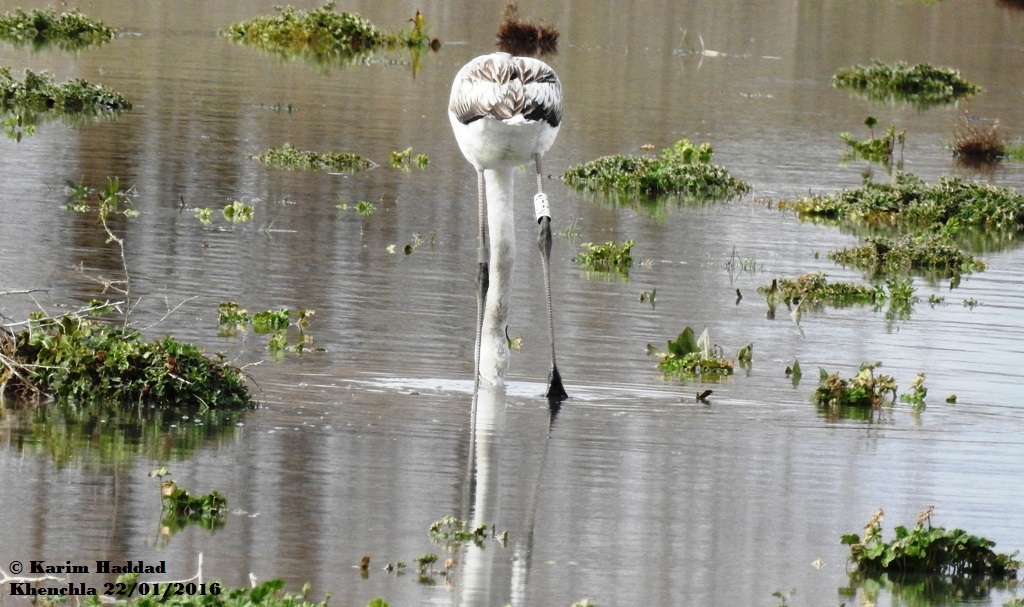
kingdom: Animalia
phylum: Chordata
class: Aves
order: Phoenicopteriformes
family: Phoenicopteridae
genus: Phoenicopterus
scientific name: Phoenicopterus roseus
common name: Greater flamingo
